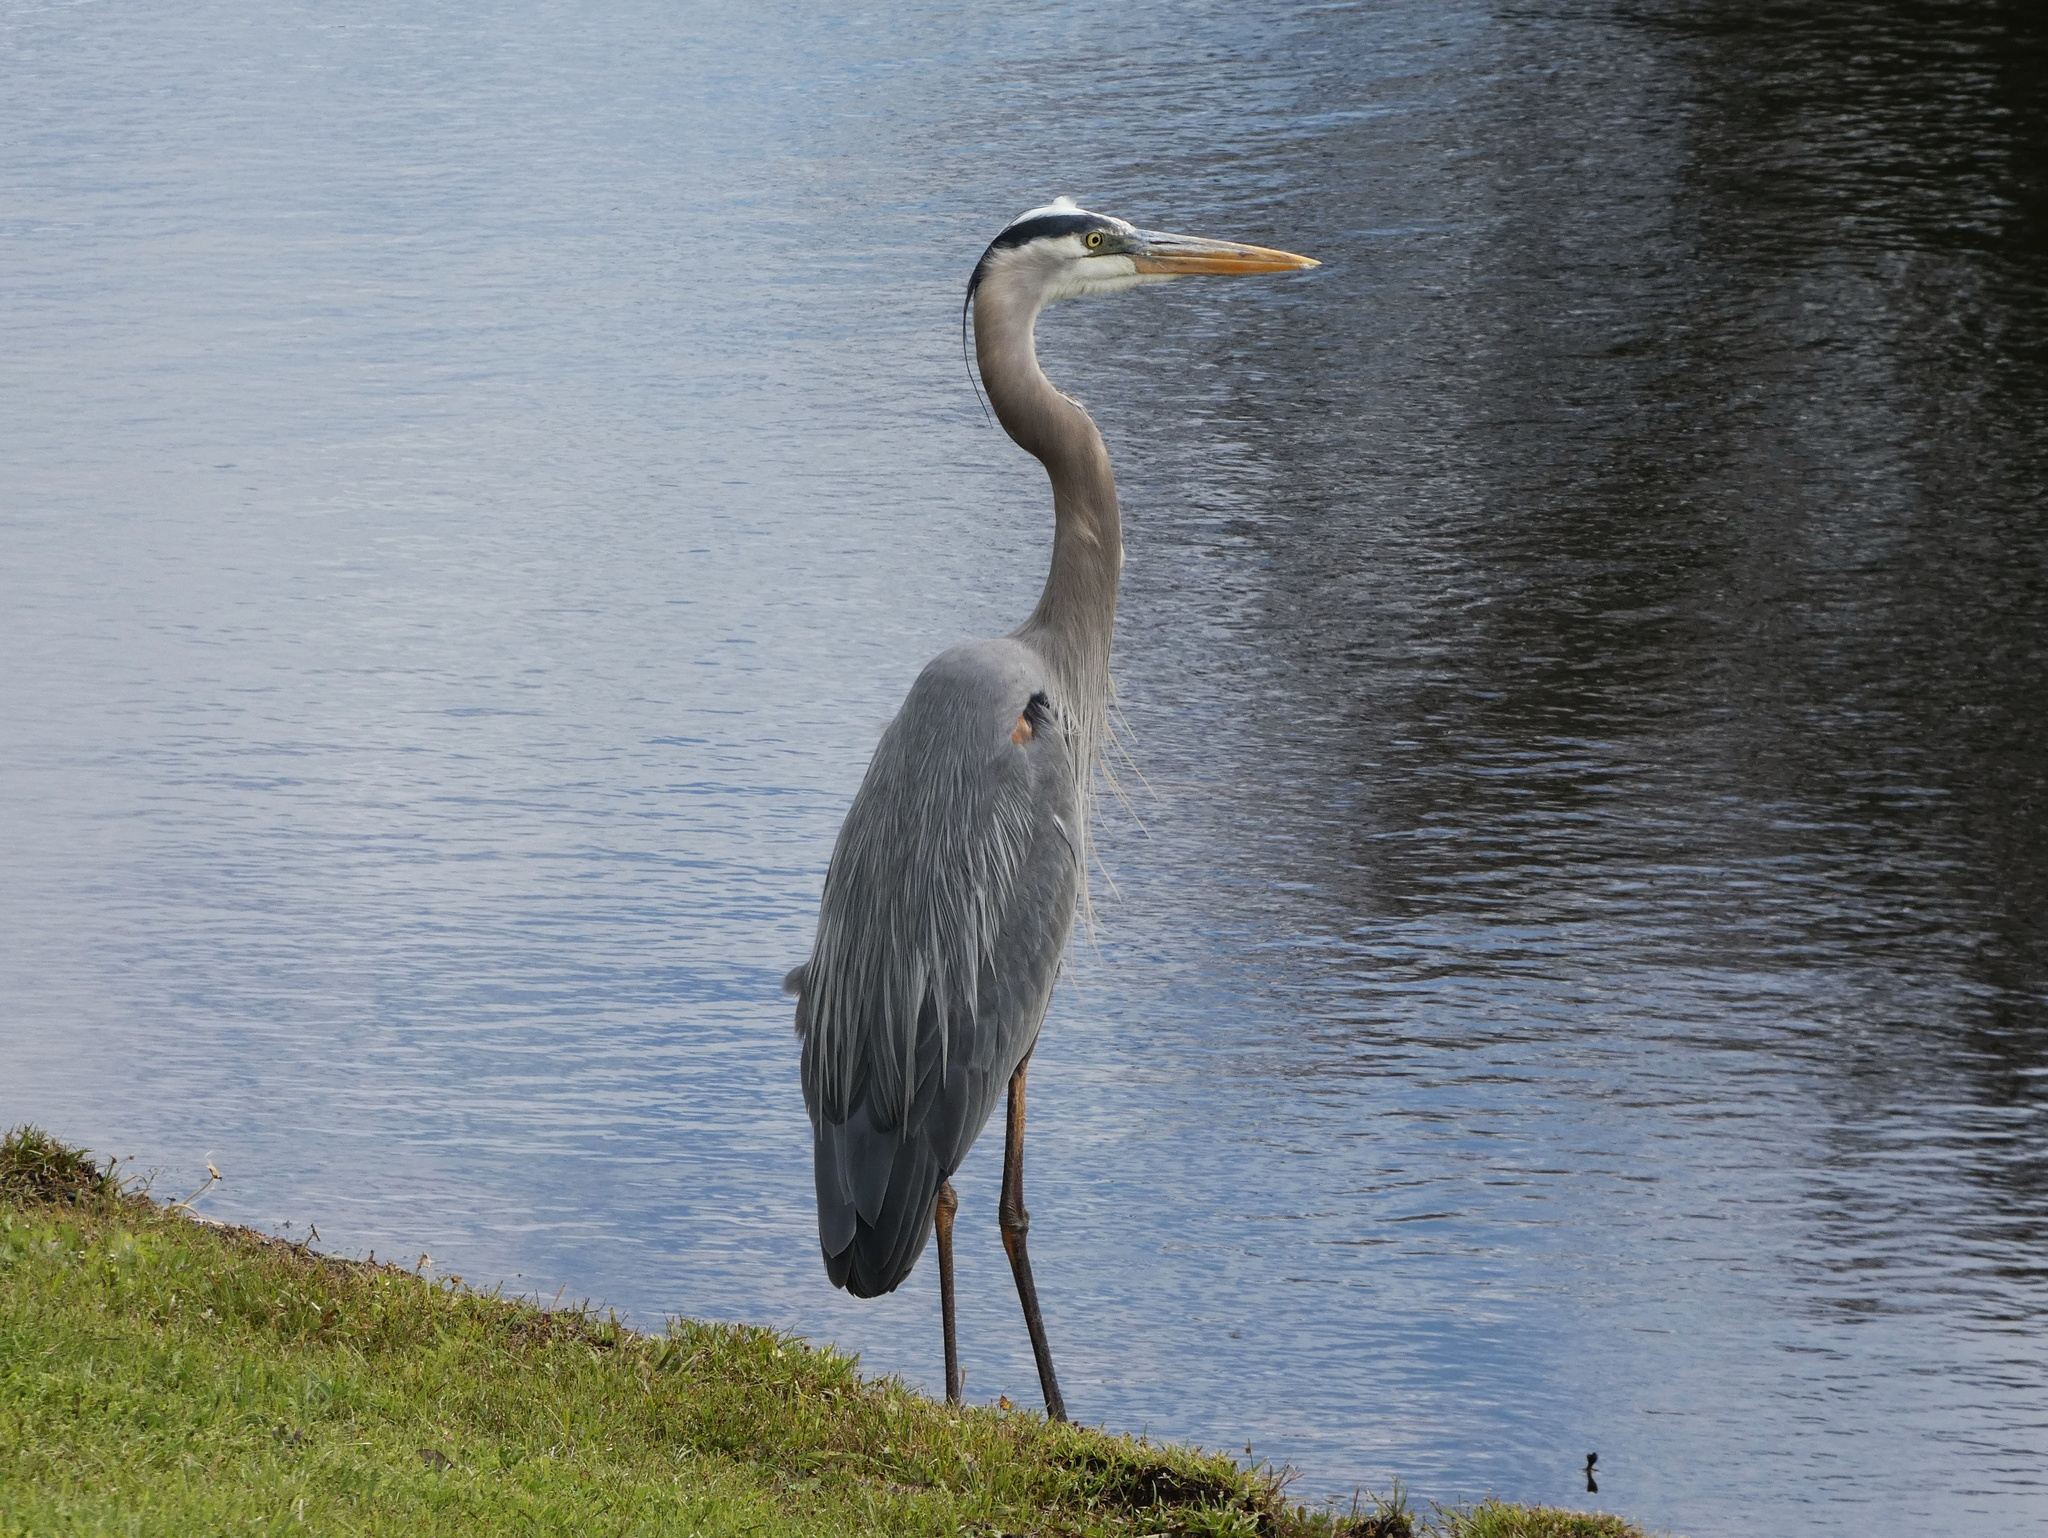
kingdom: Animalia
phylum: Chordata
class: Aves
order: Pelecaniformes
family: Ardeidae
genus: Ardea
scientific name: Ardea herodias
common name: Great blue heron
